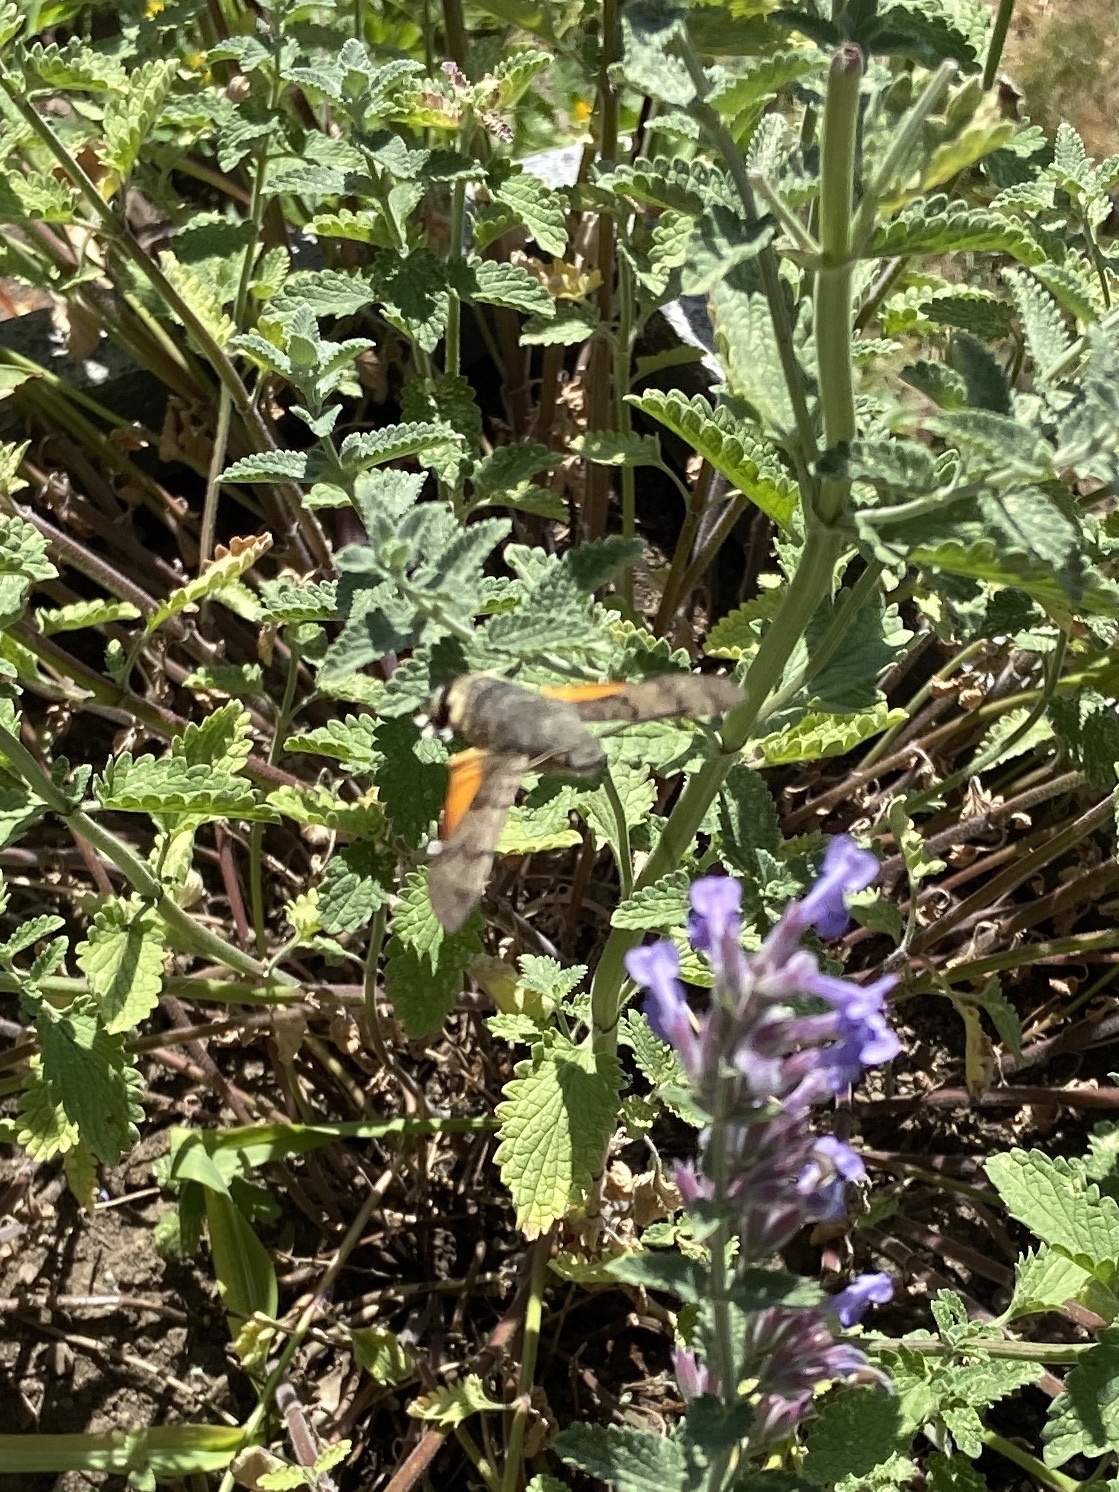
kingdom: Animalia
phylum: Arthropoda
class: Insecta
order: Lepidoptera
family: Sphingidae
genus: Macroglossum
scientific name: Macroglossum stellatarum
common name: Humming-bird hawk-moth
